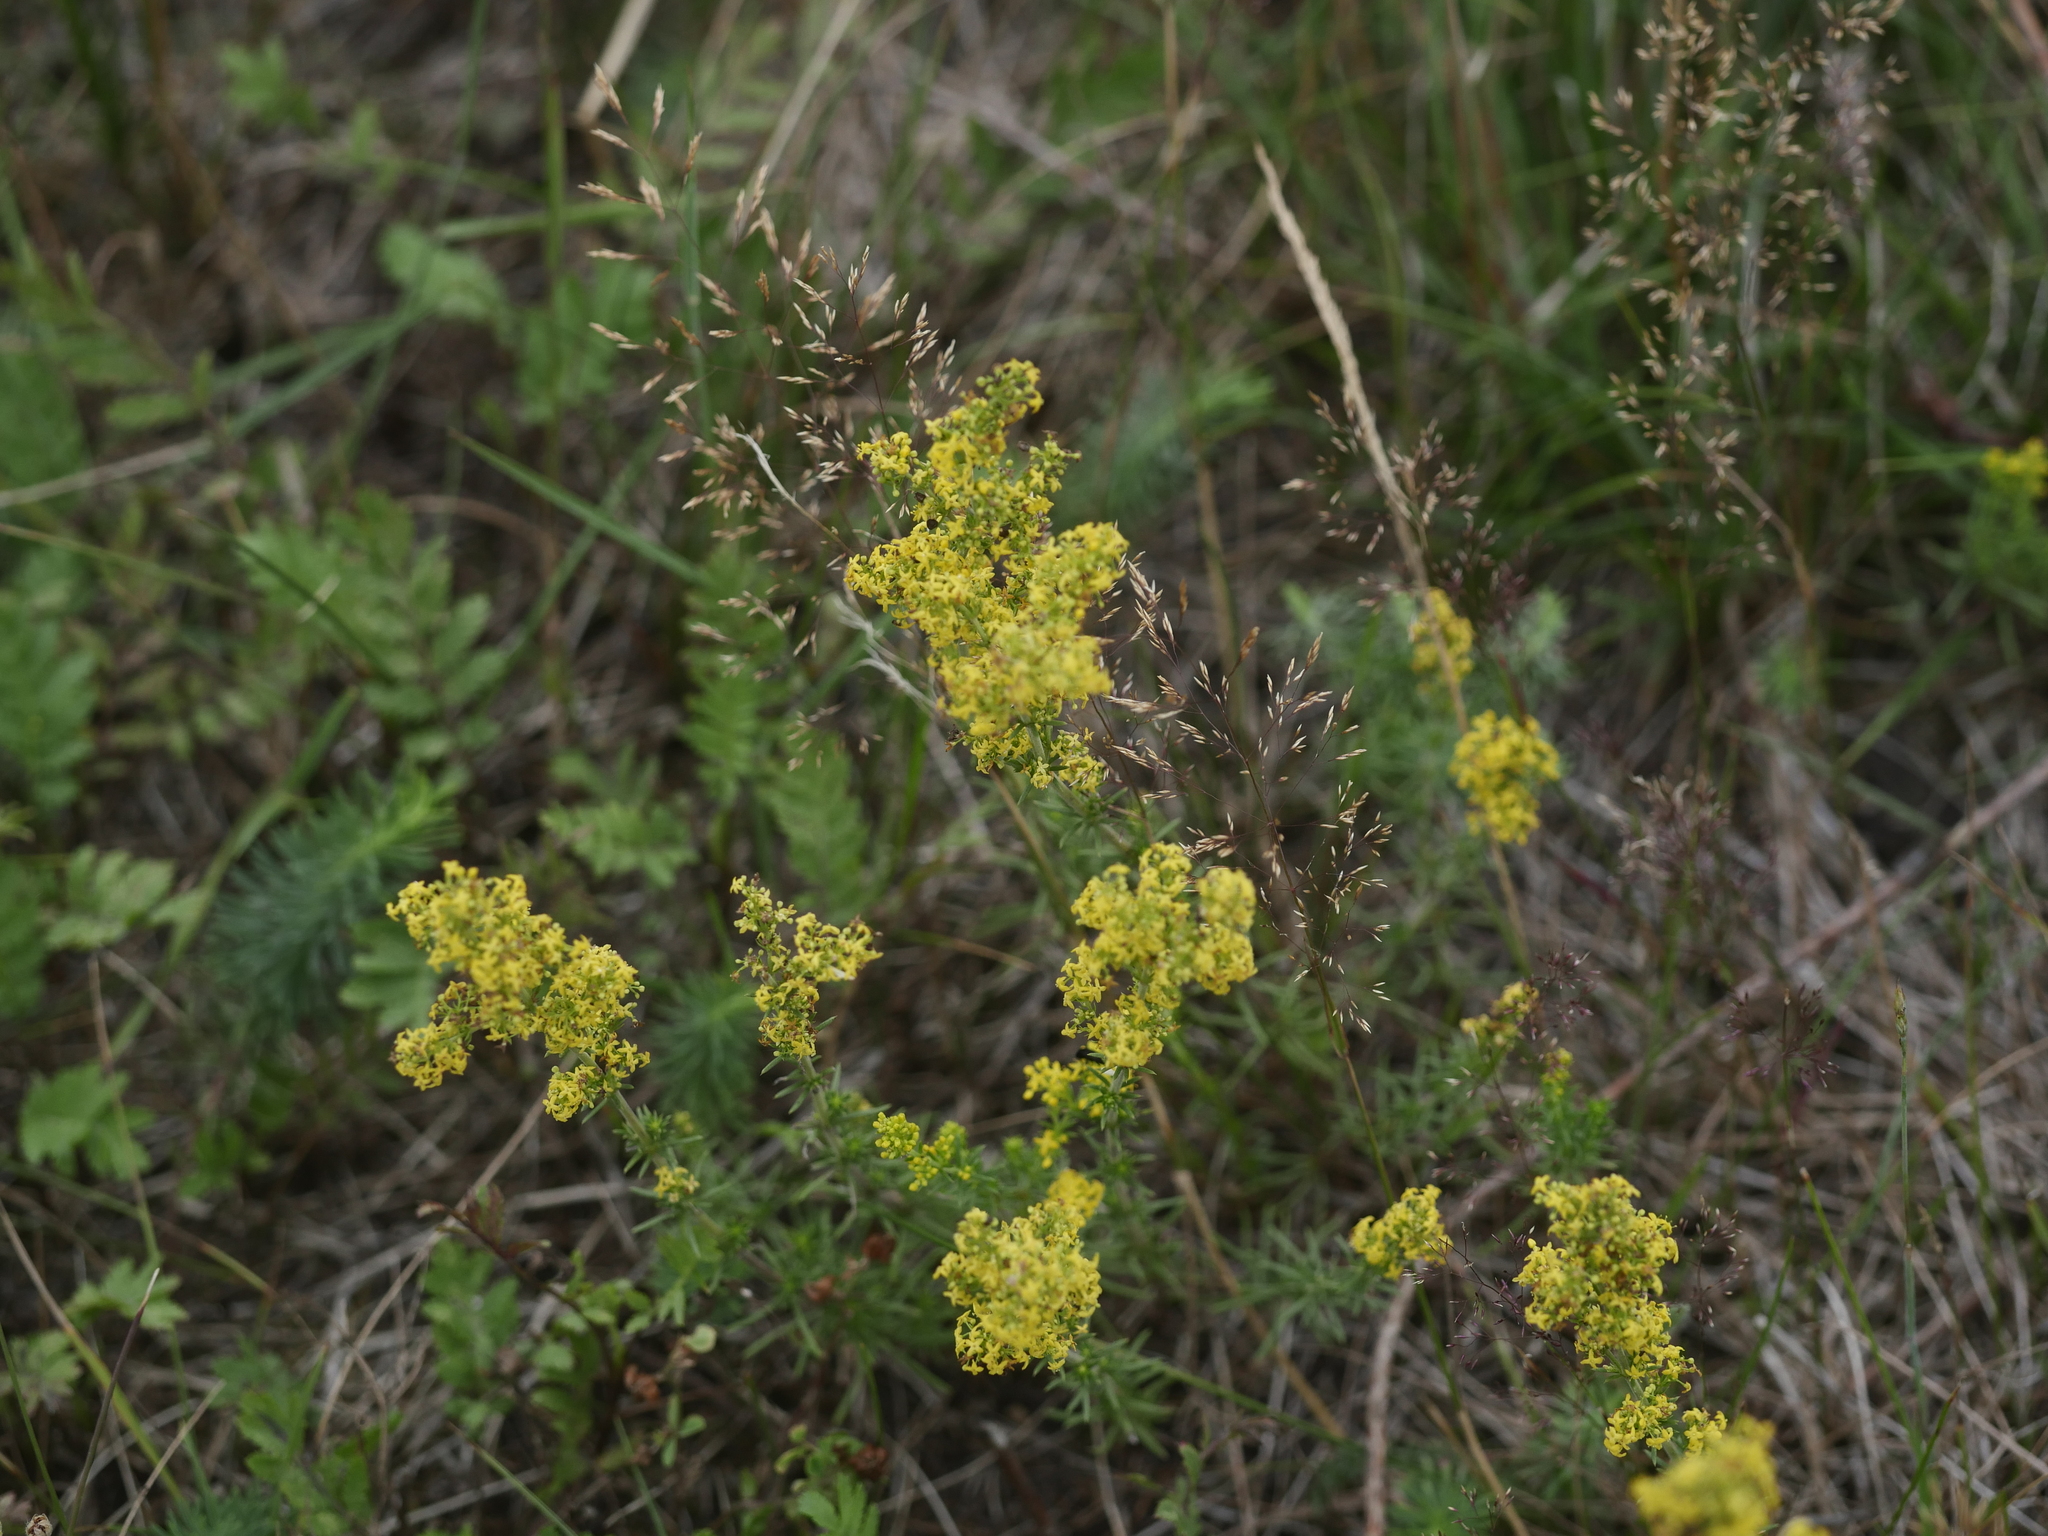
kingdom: Plantae
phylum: Tracheophyta
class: Magnoliopsida
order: Gentianales
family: Rubiaceae
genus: Galium
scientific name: Galium verum
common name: Lady's bedstraw
